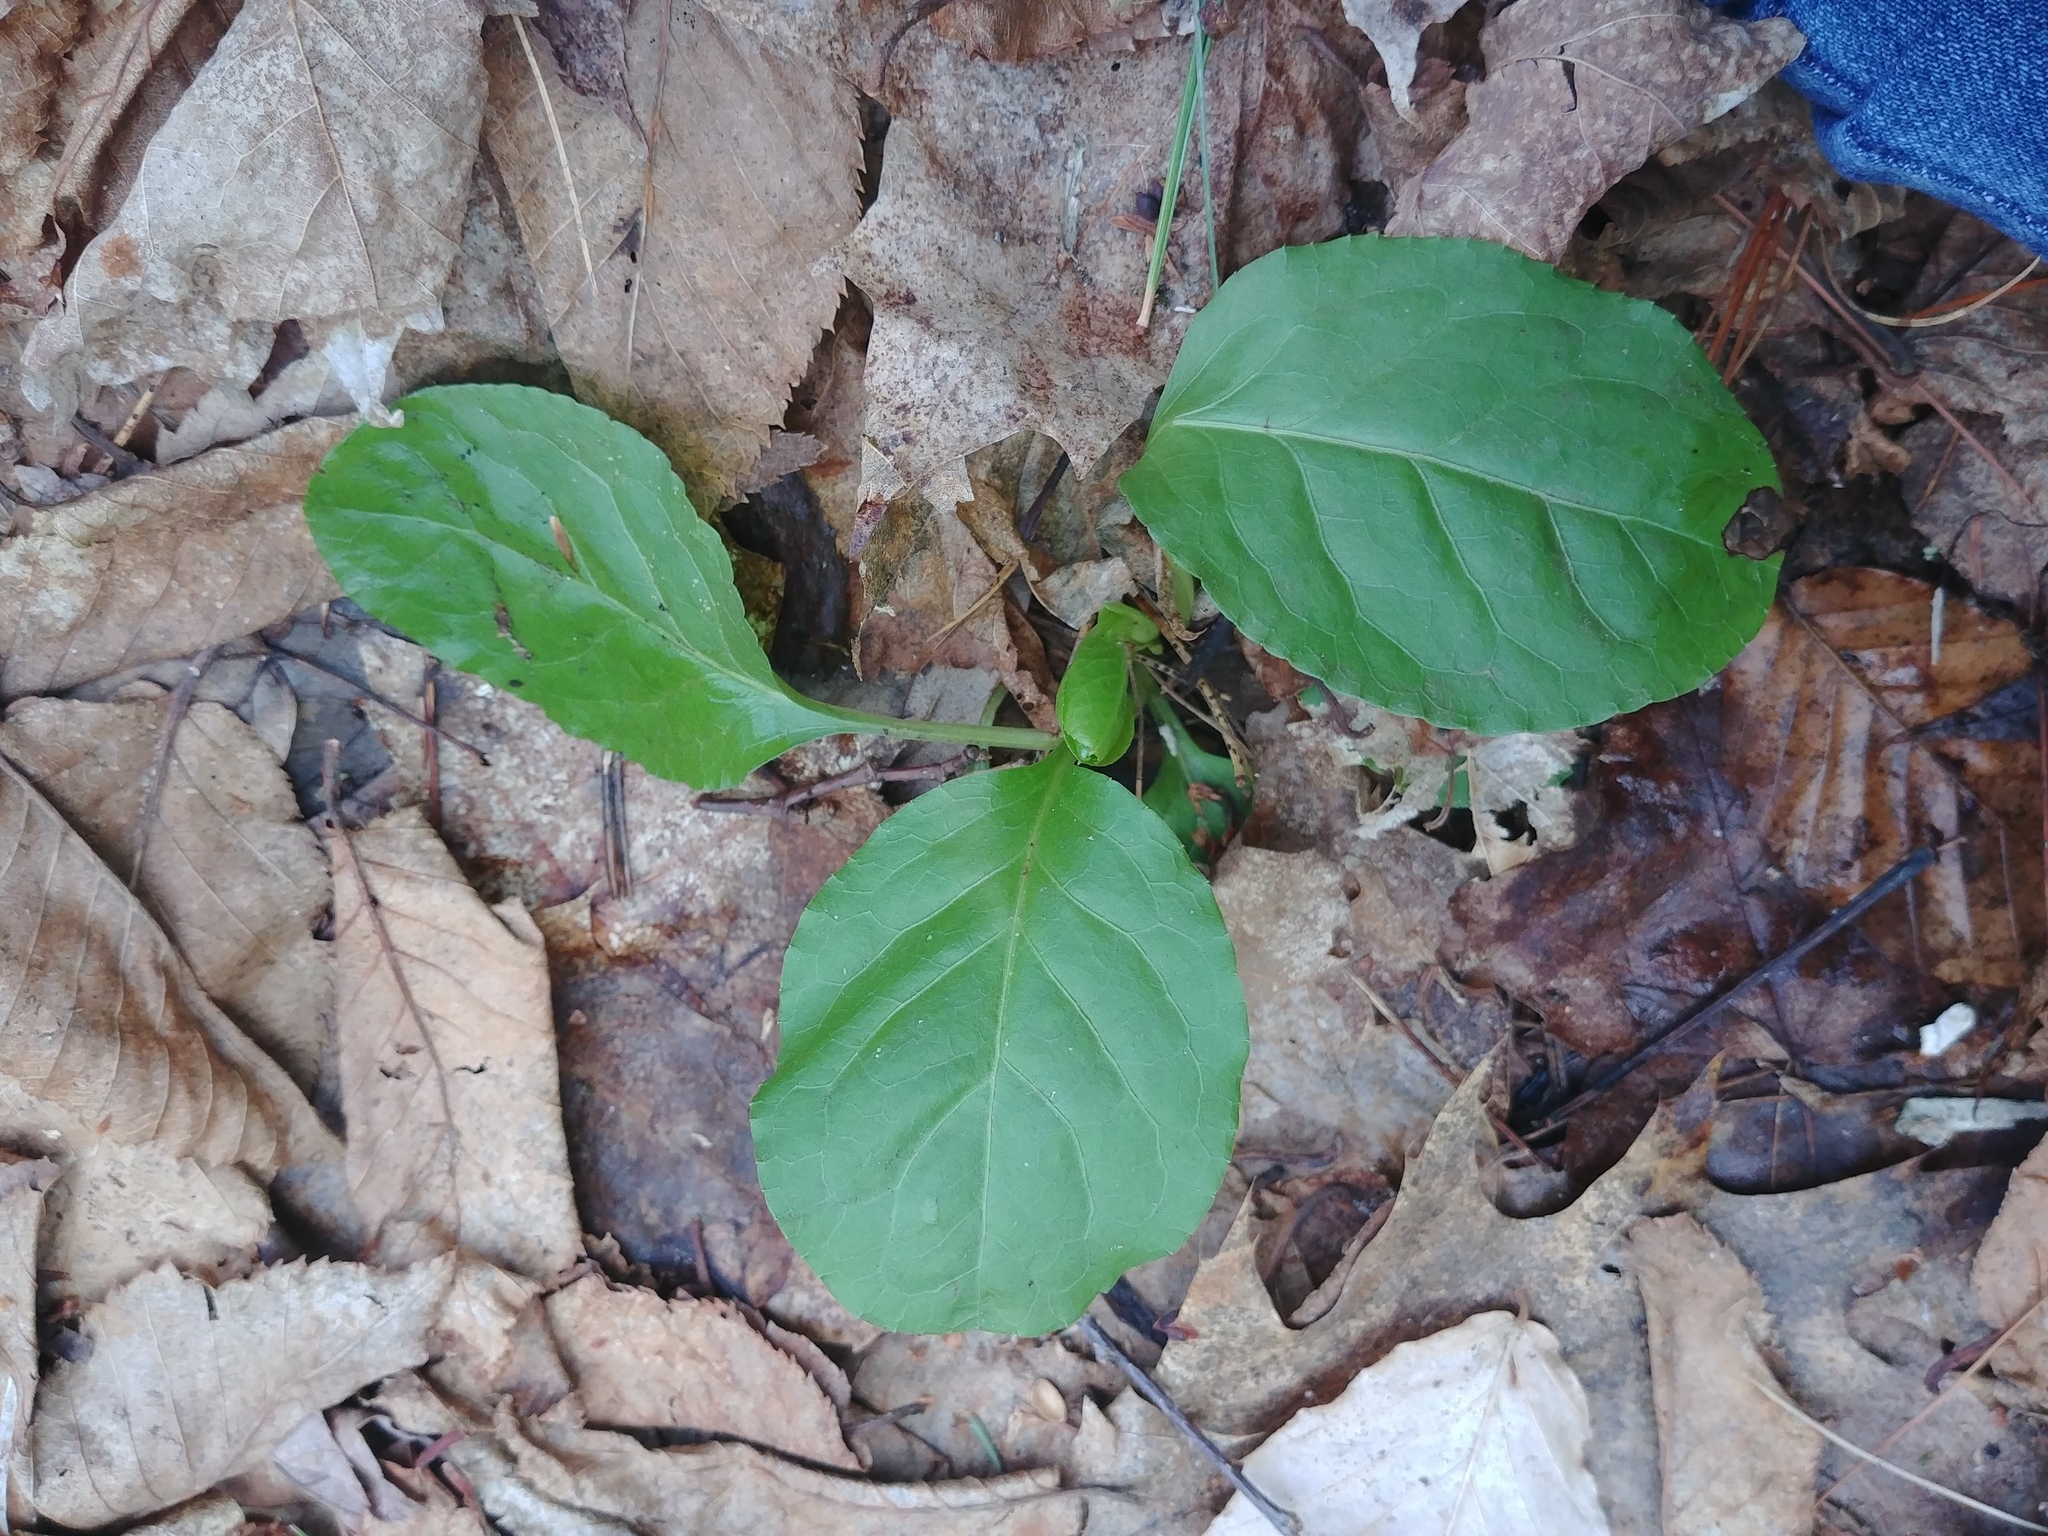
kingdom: Plantae
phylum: Tracheophyta
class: Magnoliopsida
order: Ericales
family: Ericaceae
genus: Pyrola
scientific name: Pyrola elliptica
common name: Shinleaf
